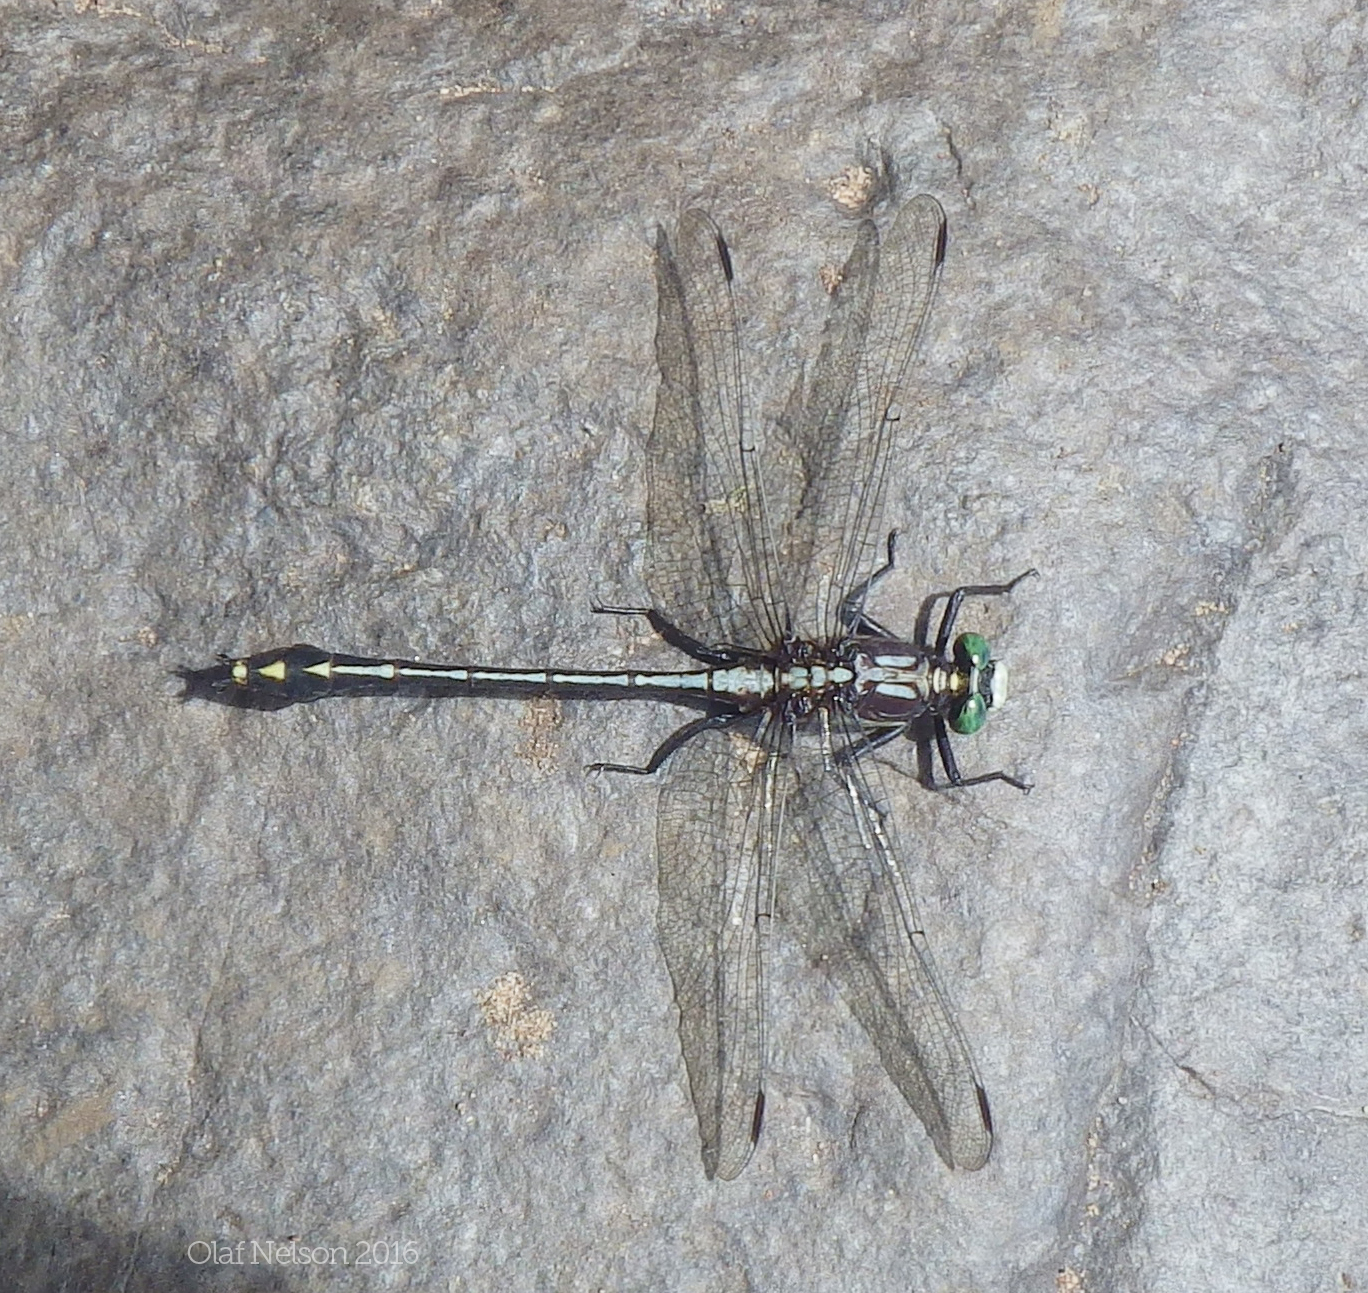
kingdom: Animalia
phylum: Arthropoda
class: Insecta
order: Odonata
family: Gomphidae
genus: Dromogomphus
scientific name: Dromogomphus spinosus
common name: Black-shouldered spinyleg
